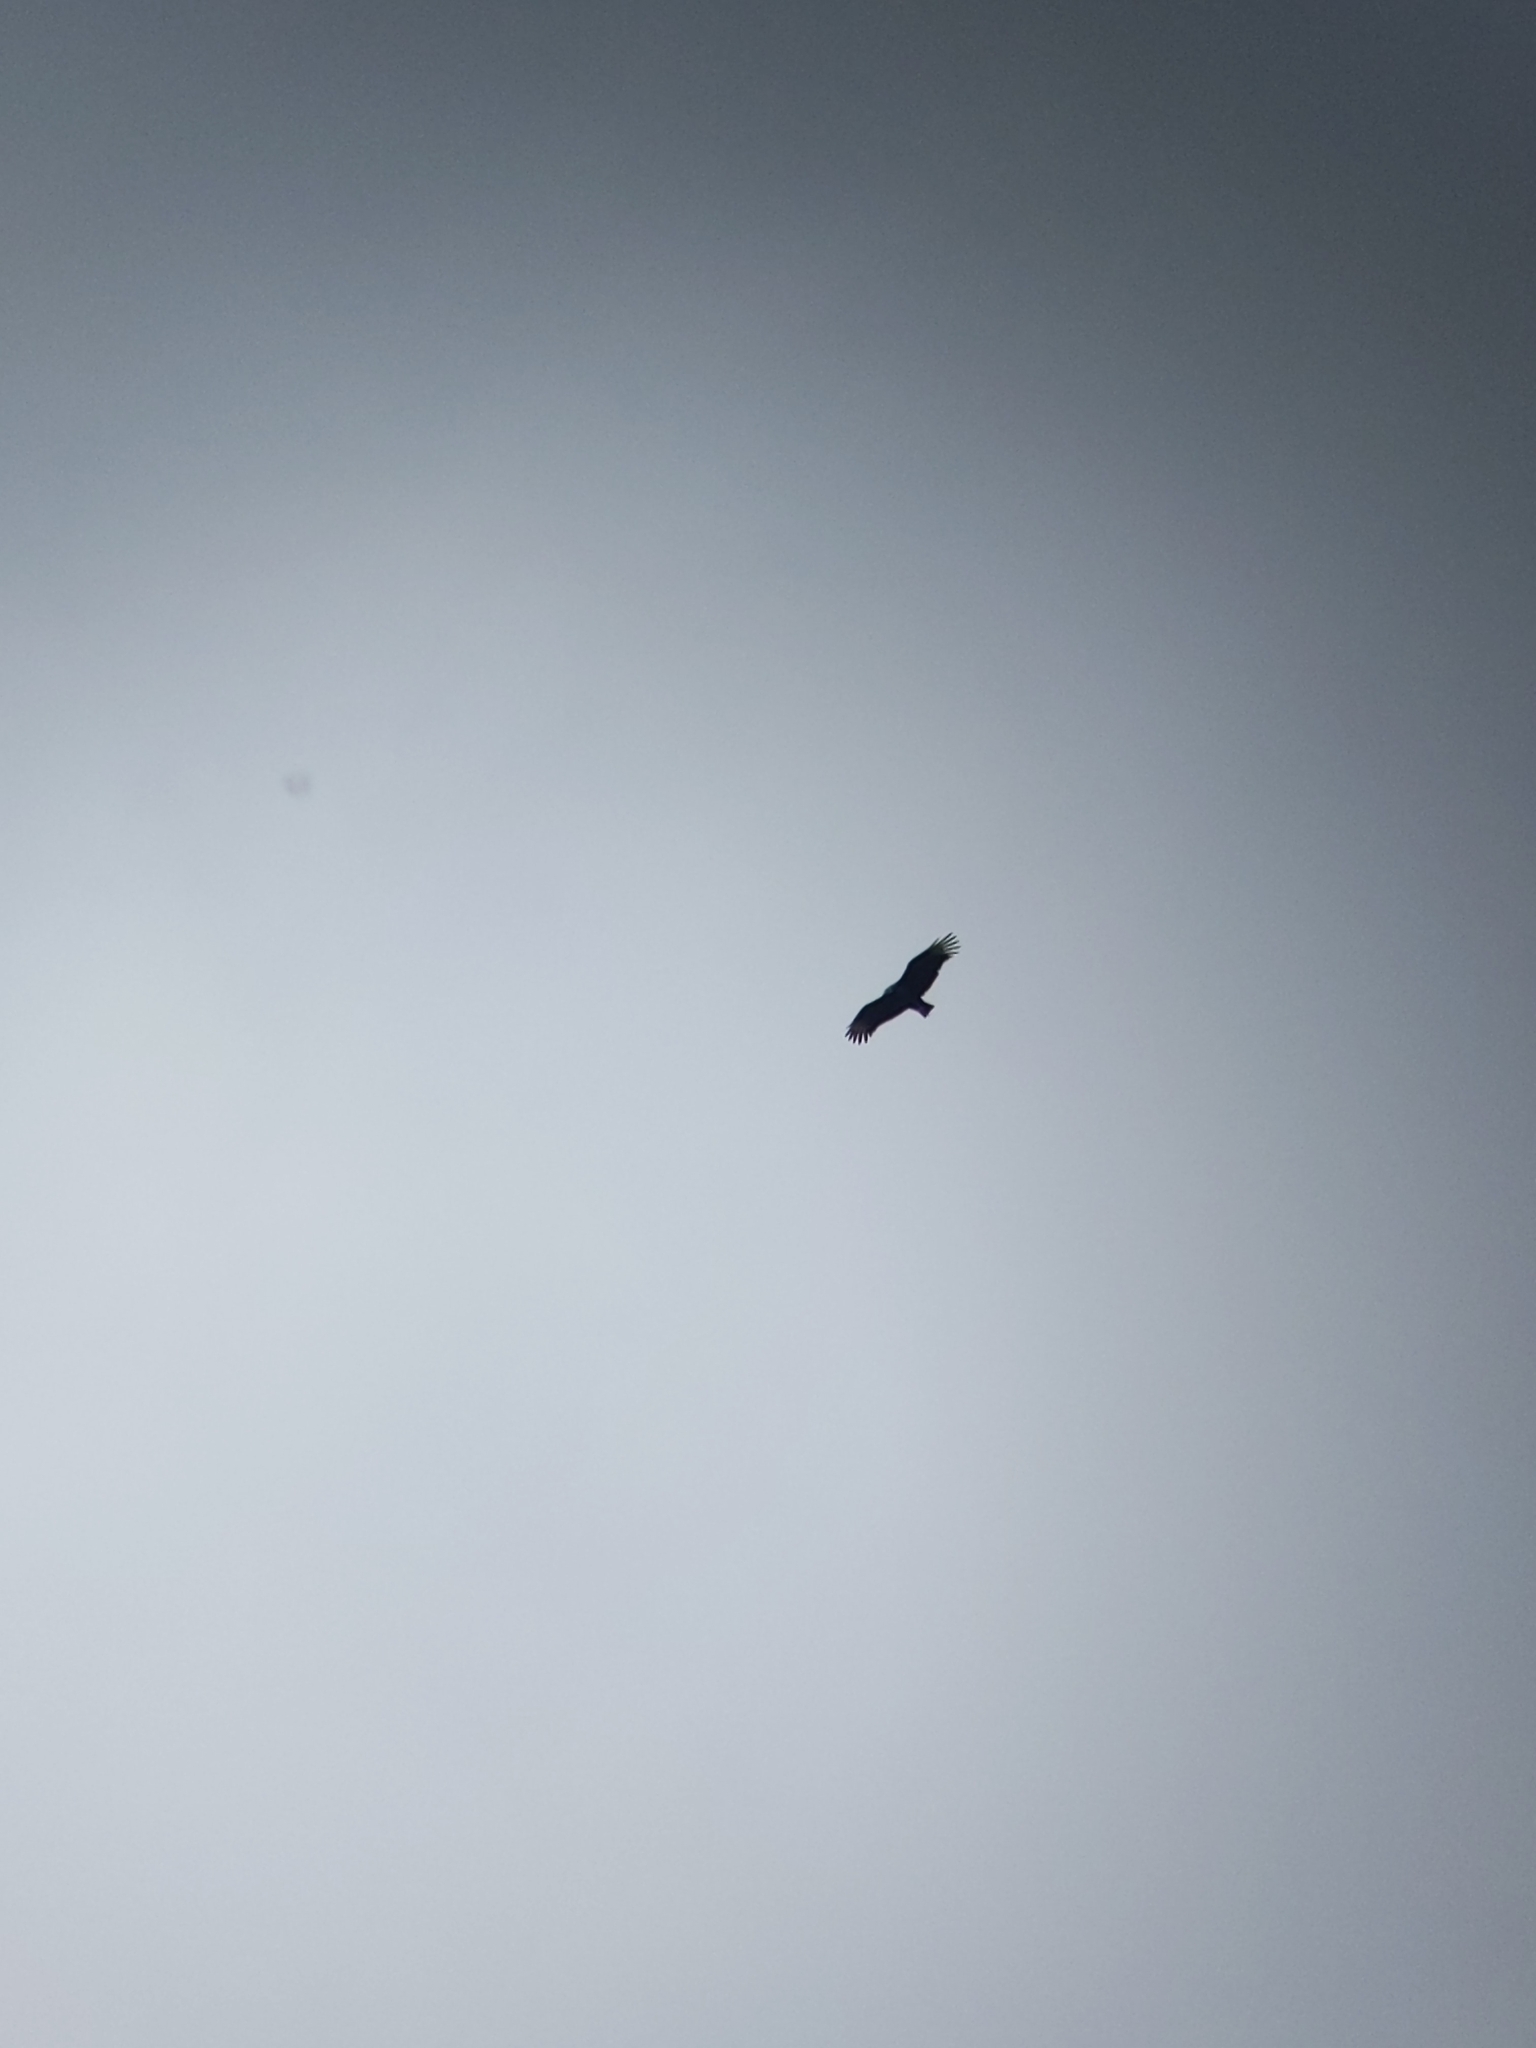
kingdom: Animalia
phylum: Chordata
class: Aves
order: Accipitriformes
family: Cathartidae
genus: Coragyps
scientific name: Coragyps atratus
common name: Black vulture
